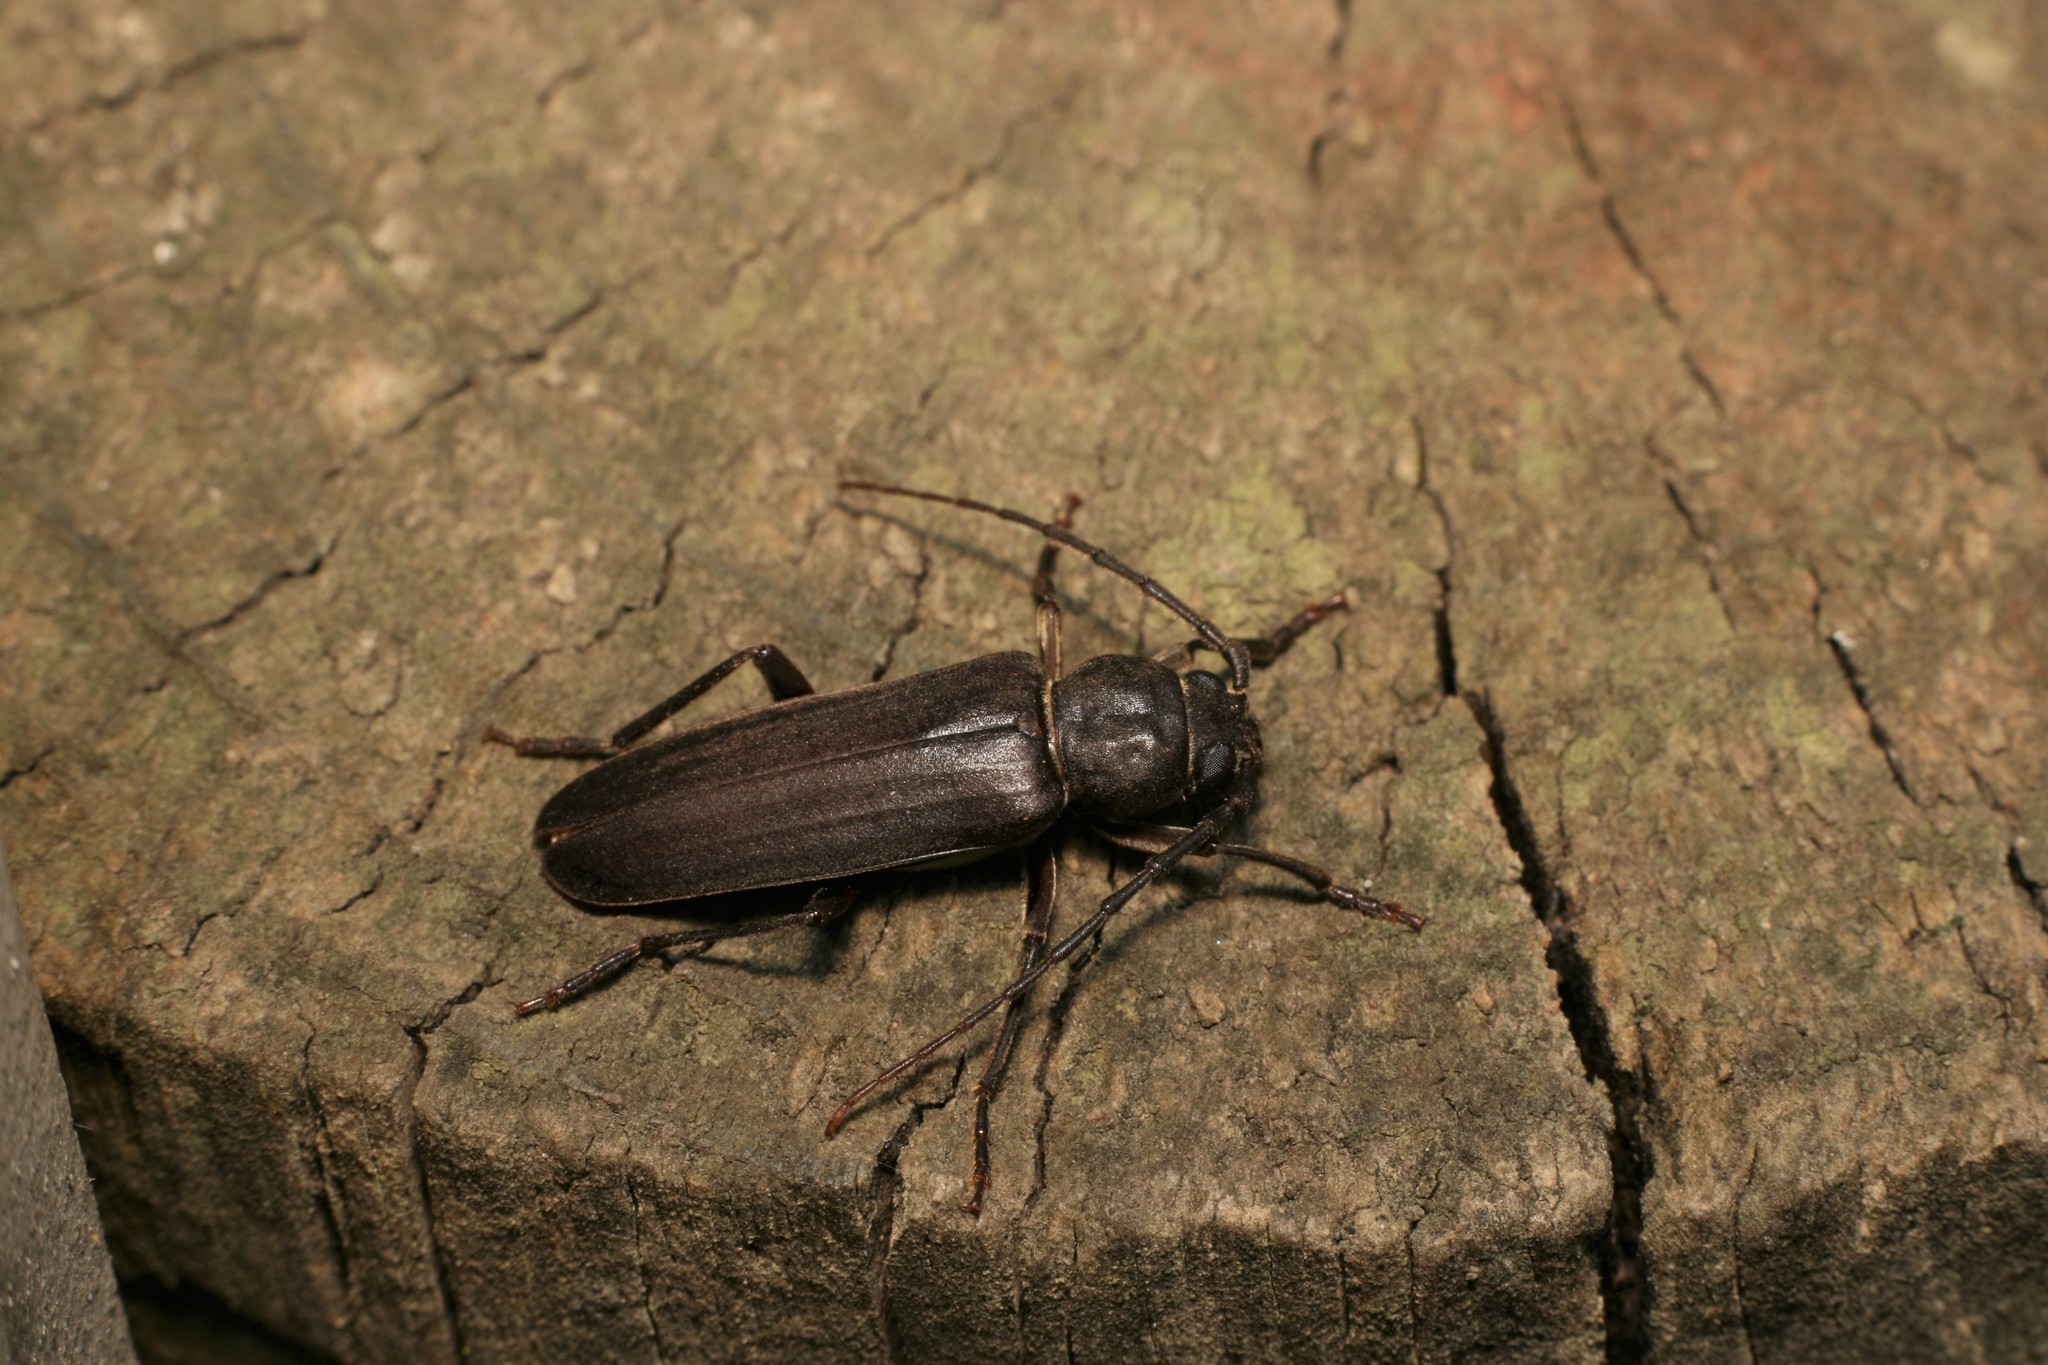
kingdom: Animalia
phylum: Arthropoda
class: Insecta
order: Coleoptera
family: Cerambycidae
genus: Arhopalus
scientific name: Arhopalus ferus
